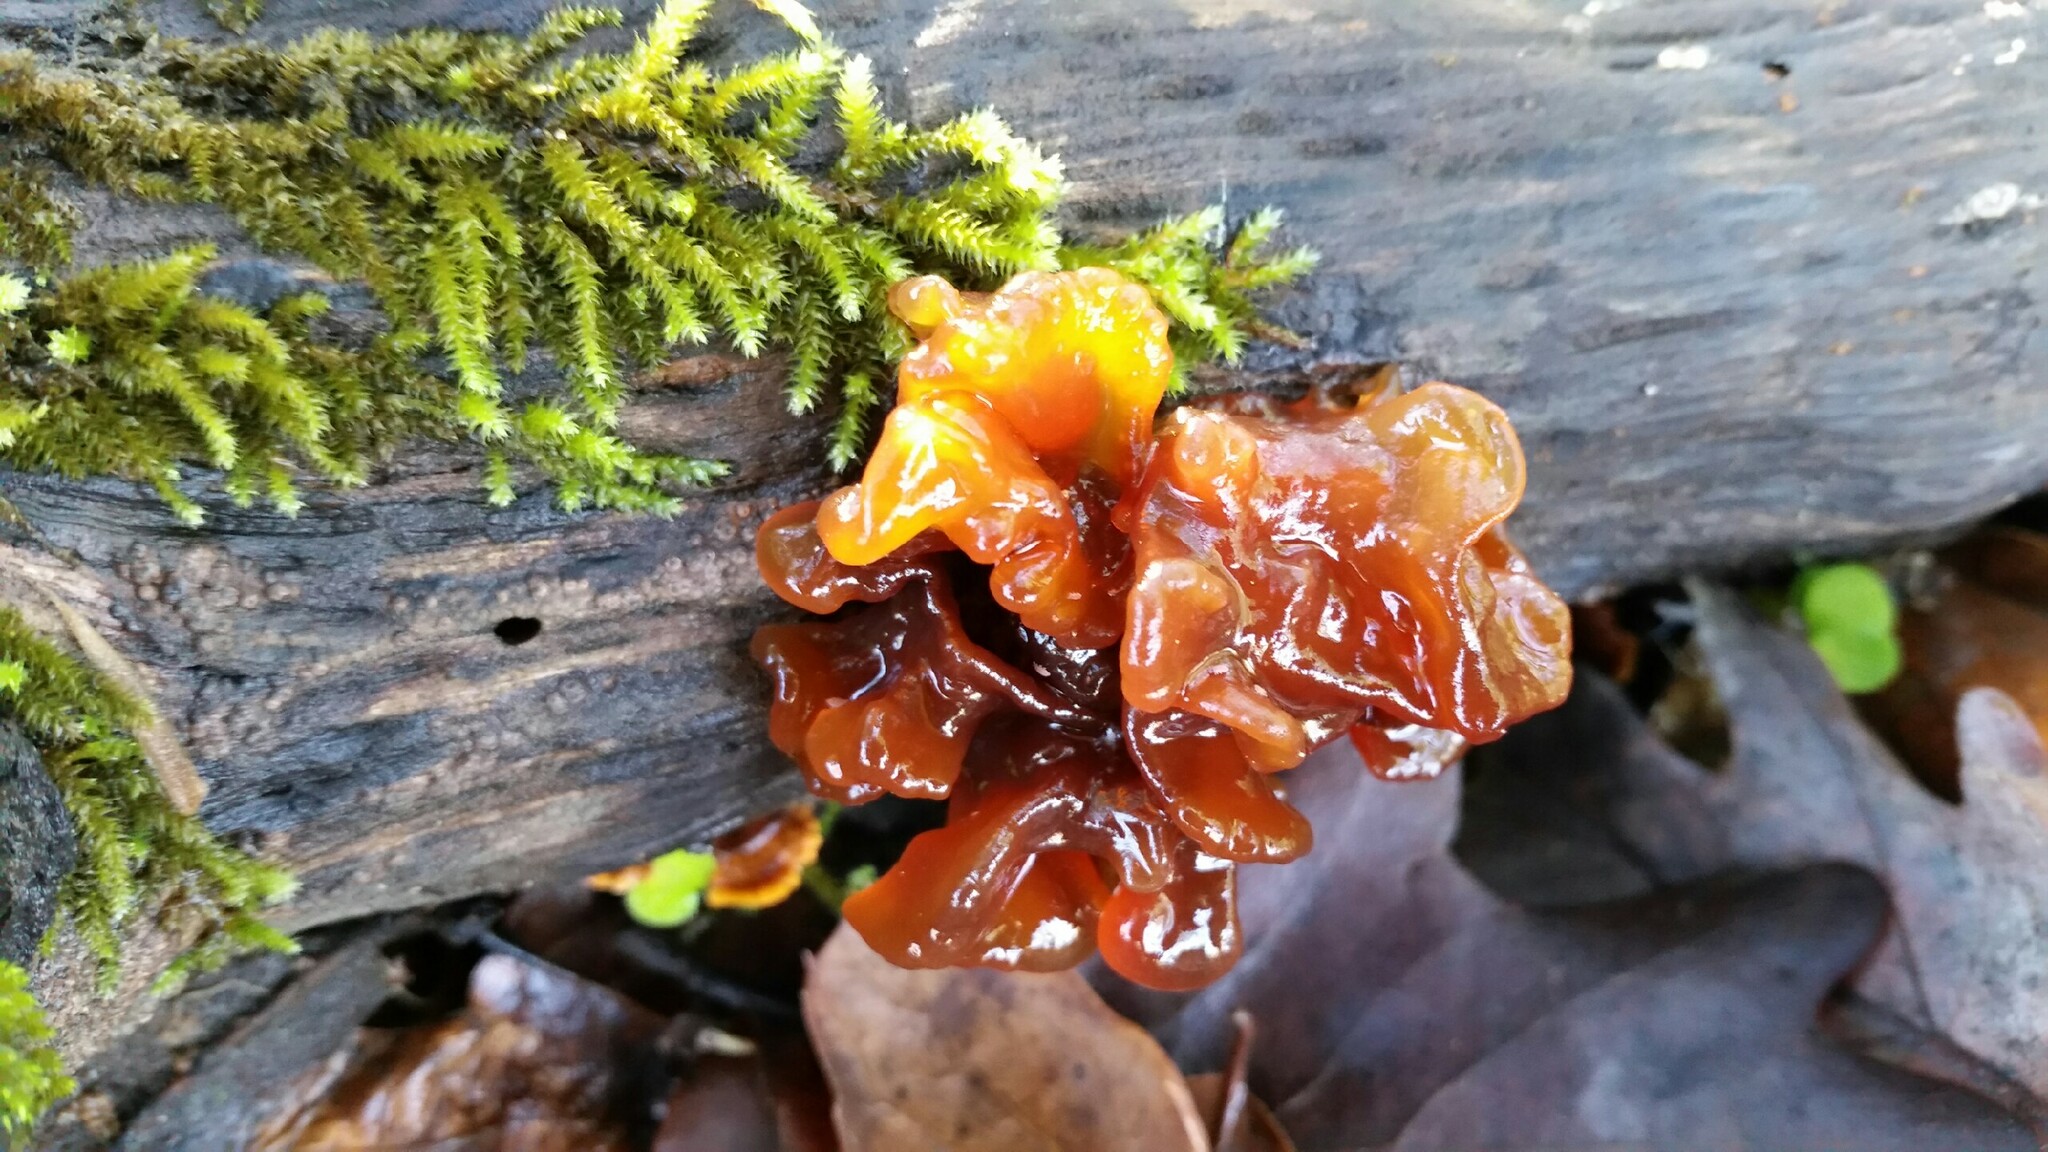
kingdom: Fungi
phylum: Basidiomycota
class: Tremellomycetes
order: Tremellales
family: Tremellaceae
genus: Phaeotremella
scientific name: Phaeotremella foliacea
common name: Leafy brain
